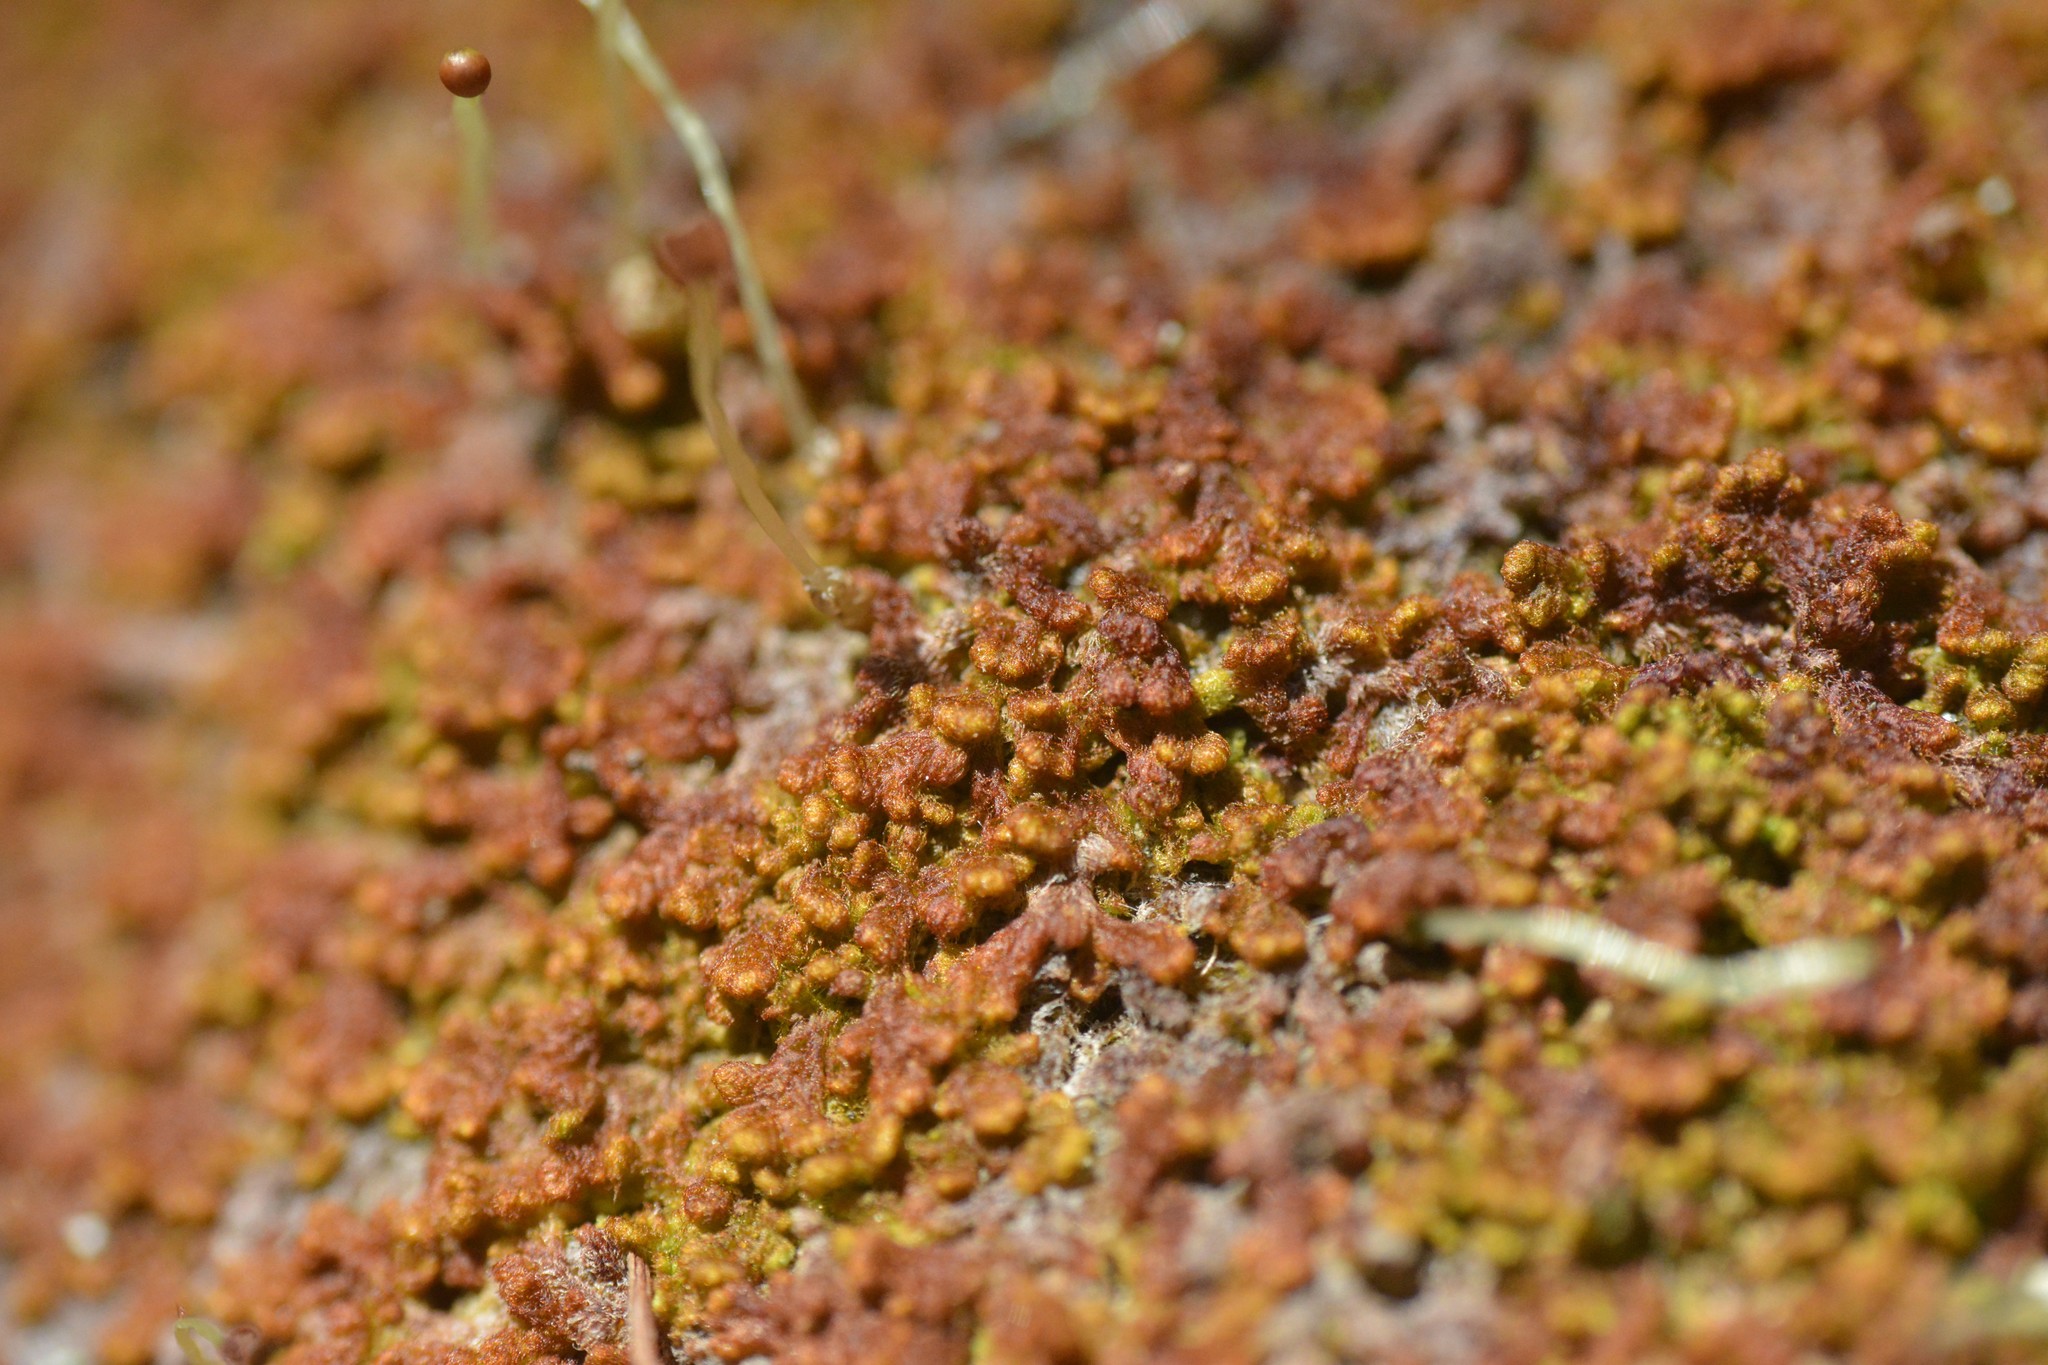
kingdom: Plantae
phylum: Marchantiophyta
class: Jungermanniopsida
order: Ptilidiales
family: Ptilidiaceae
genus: Ptilidium
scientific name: Ptilidium pulcherrimum
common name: Tree fringewort
